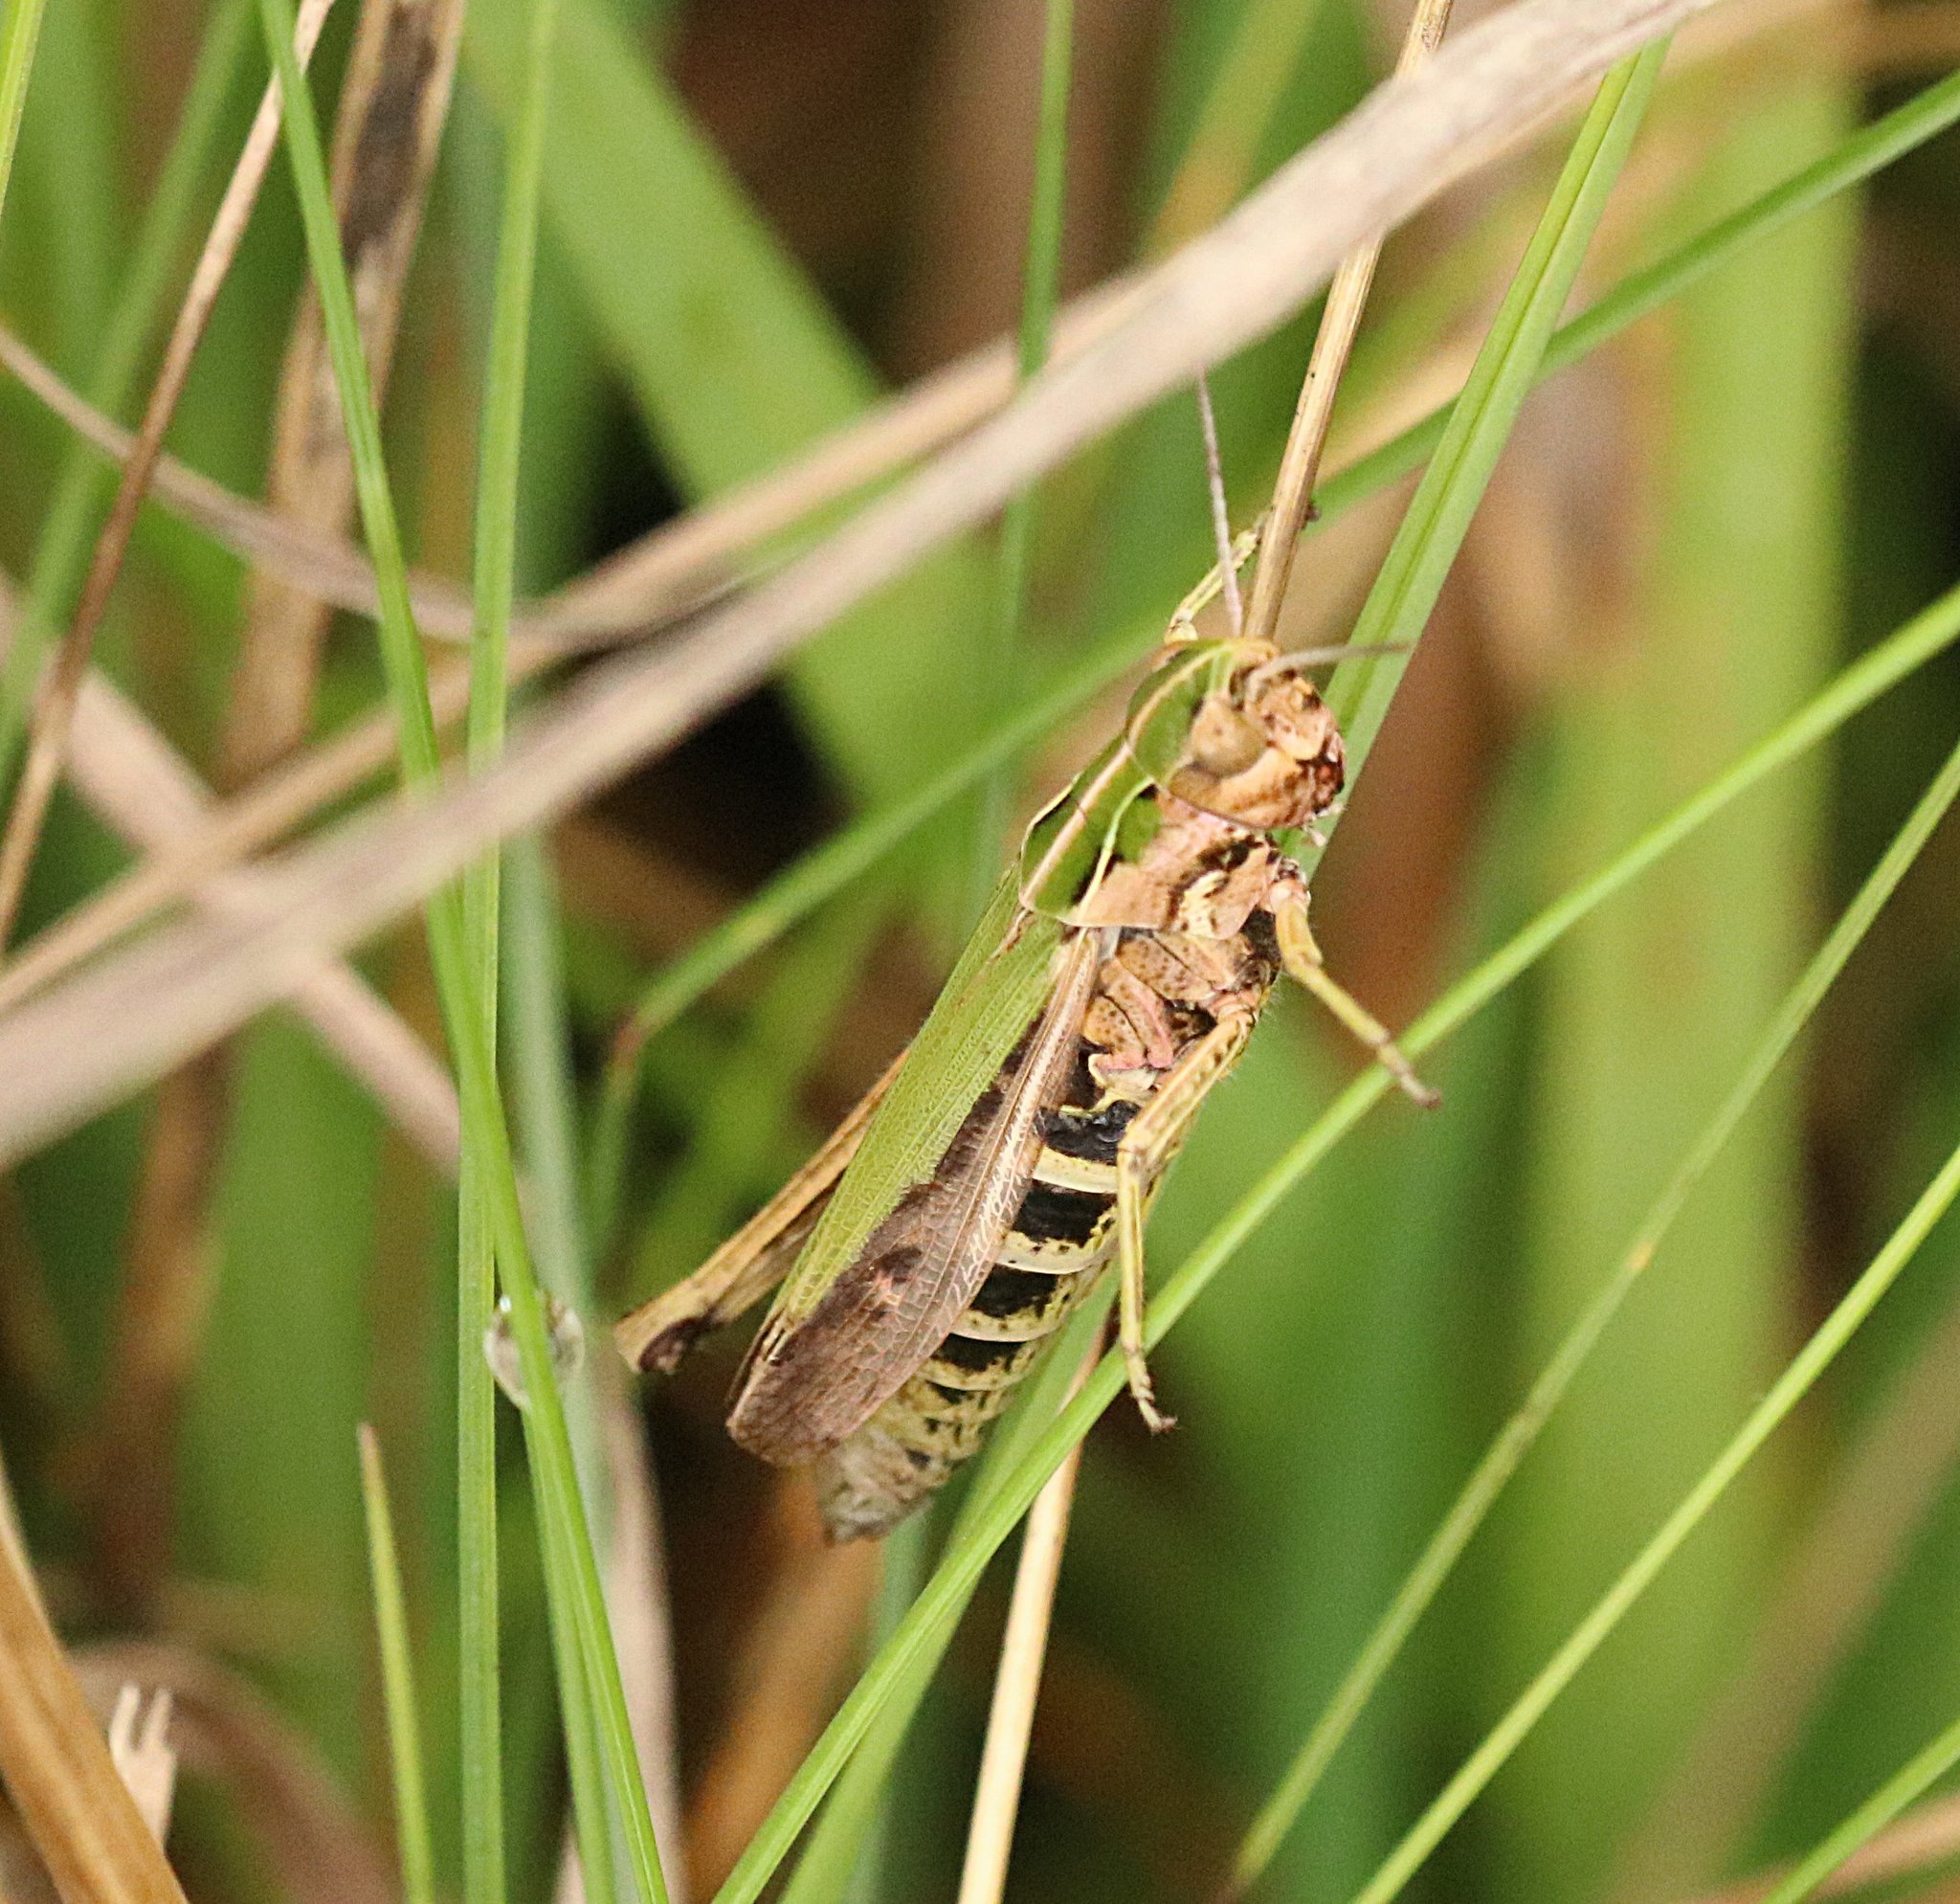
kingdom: Animalia
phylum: Arthropoda
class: Insecta
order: Orthoptera
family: Acrididae
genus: Omocestus
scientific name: Omocestus viridulus
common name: Common green grasshopper
